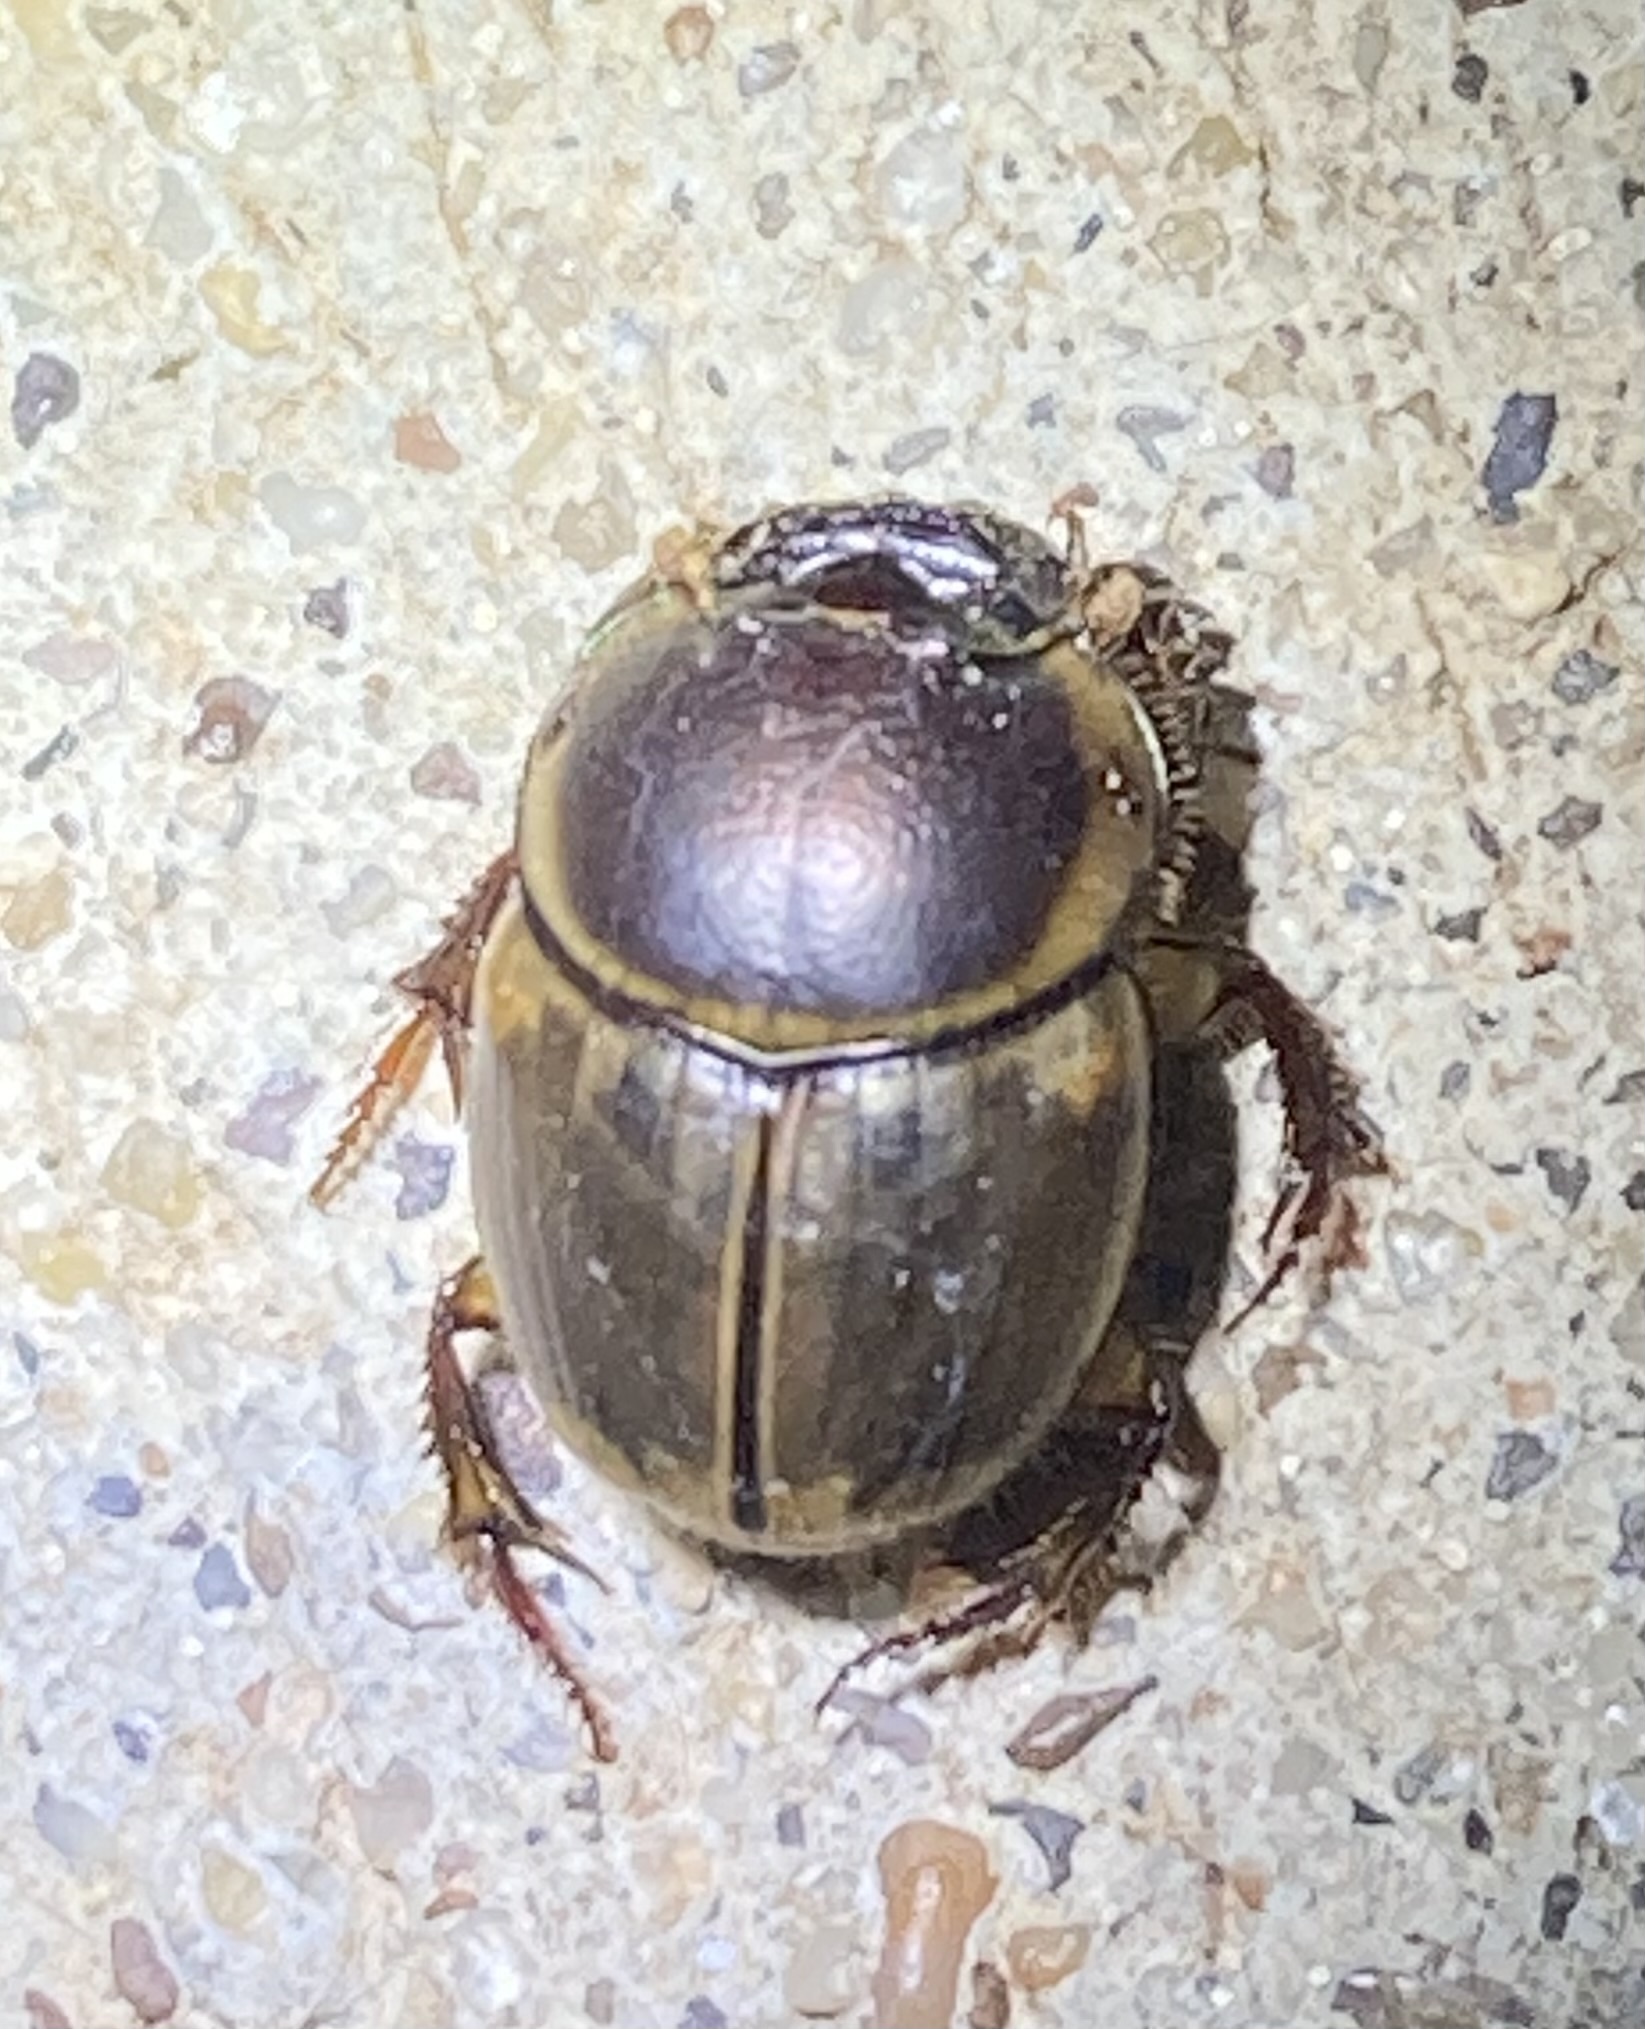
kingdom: Animalia
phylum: Arthropoda
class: Insecta
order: Coleoptera
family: Scarabaeidae
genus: Digitonthophagus
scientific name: Digitonthophagus gazella
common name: Brown dung beetle
